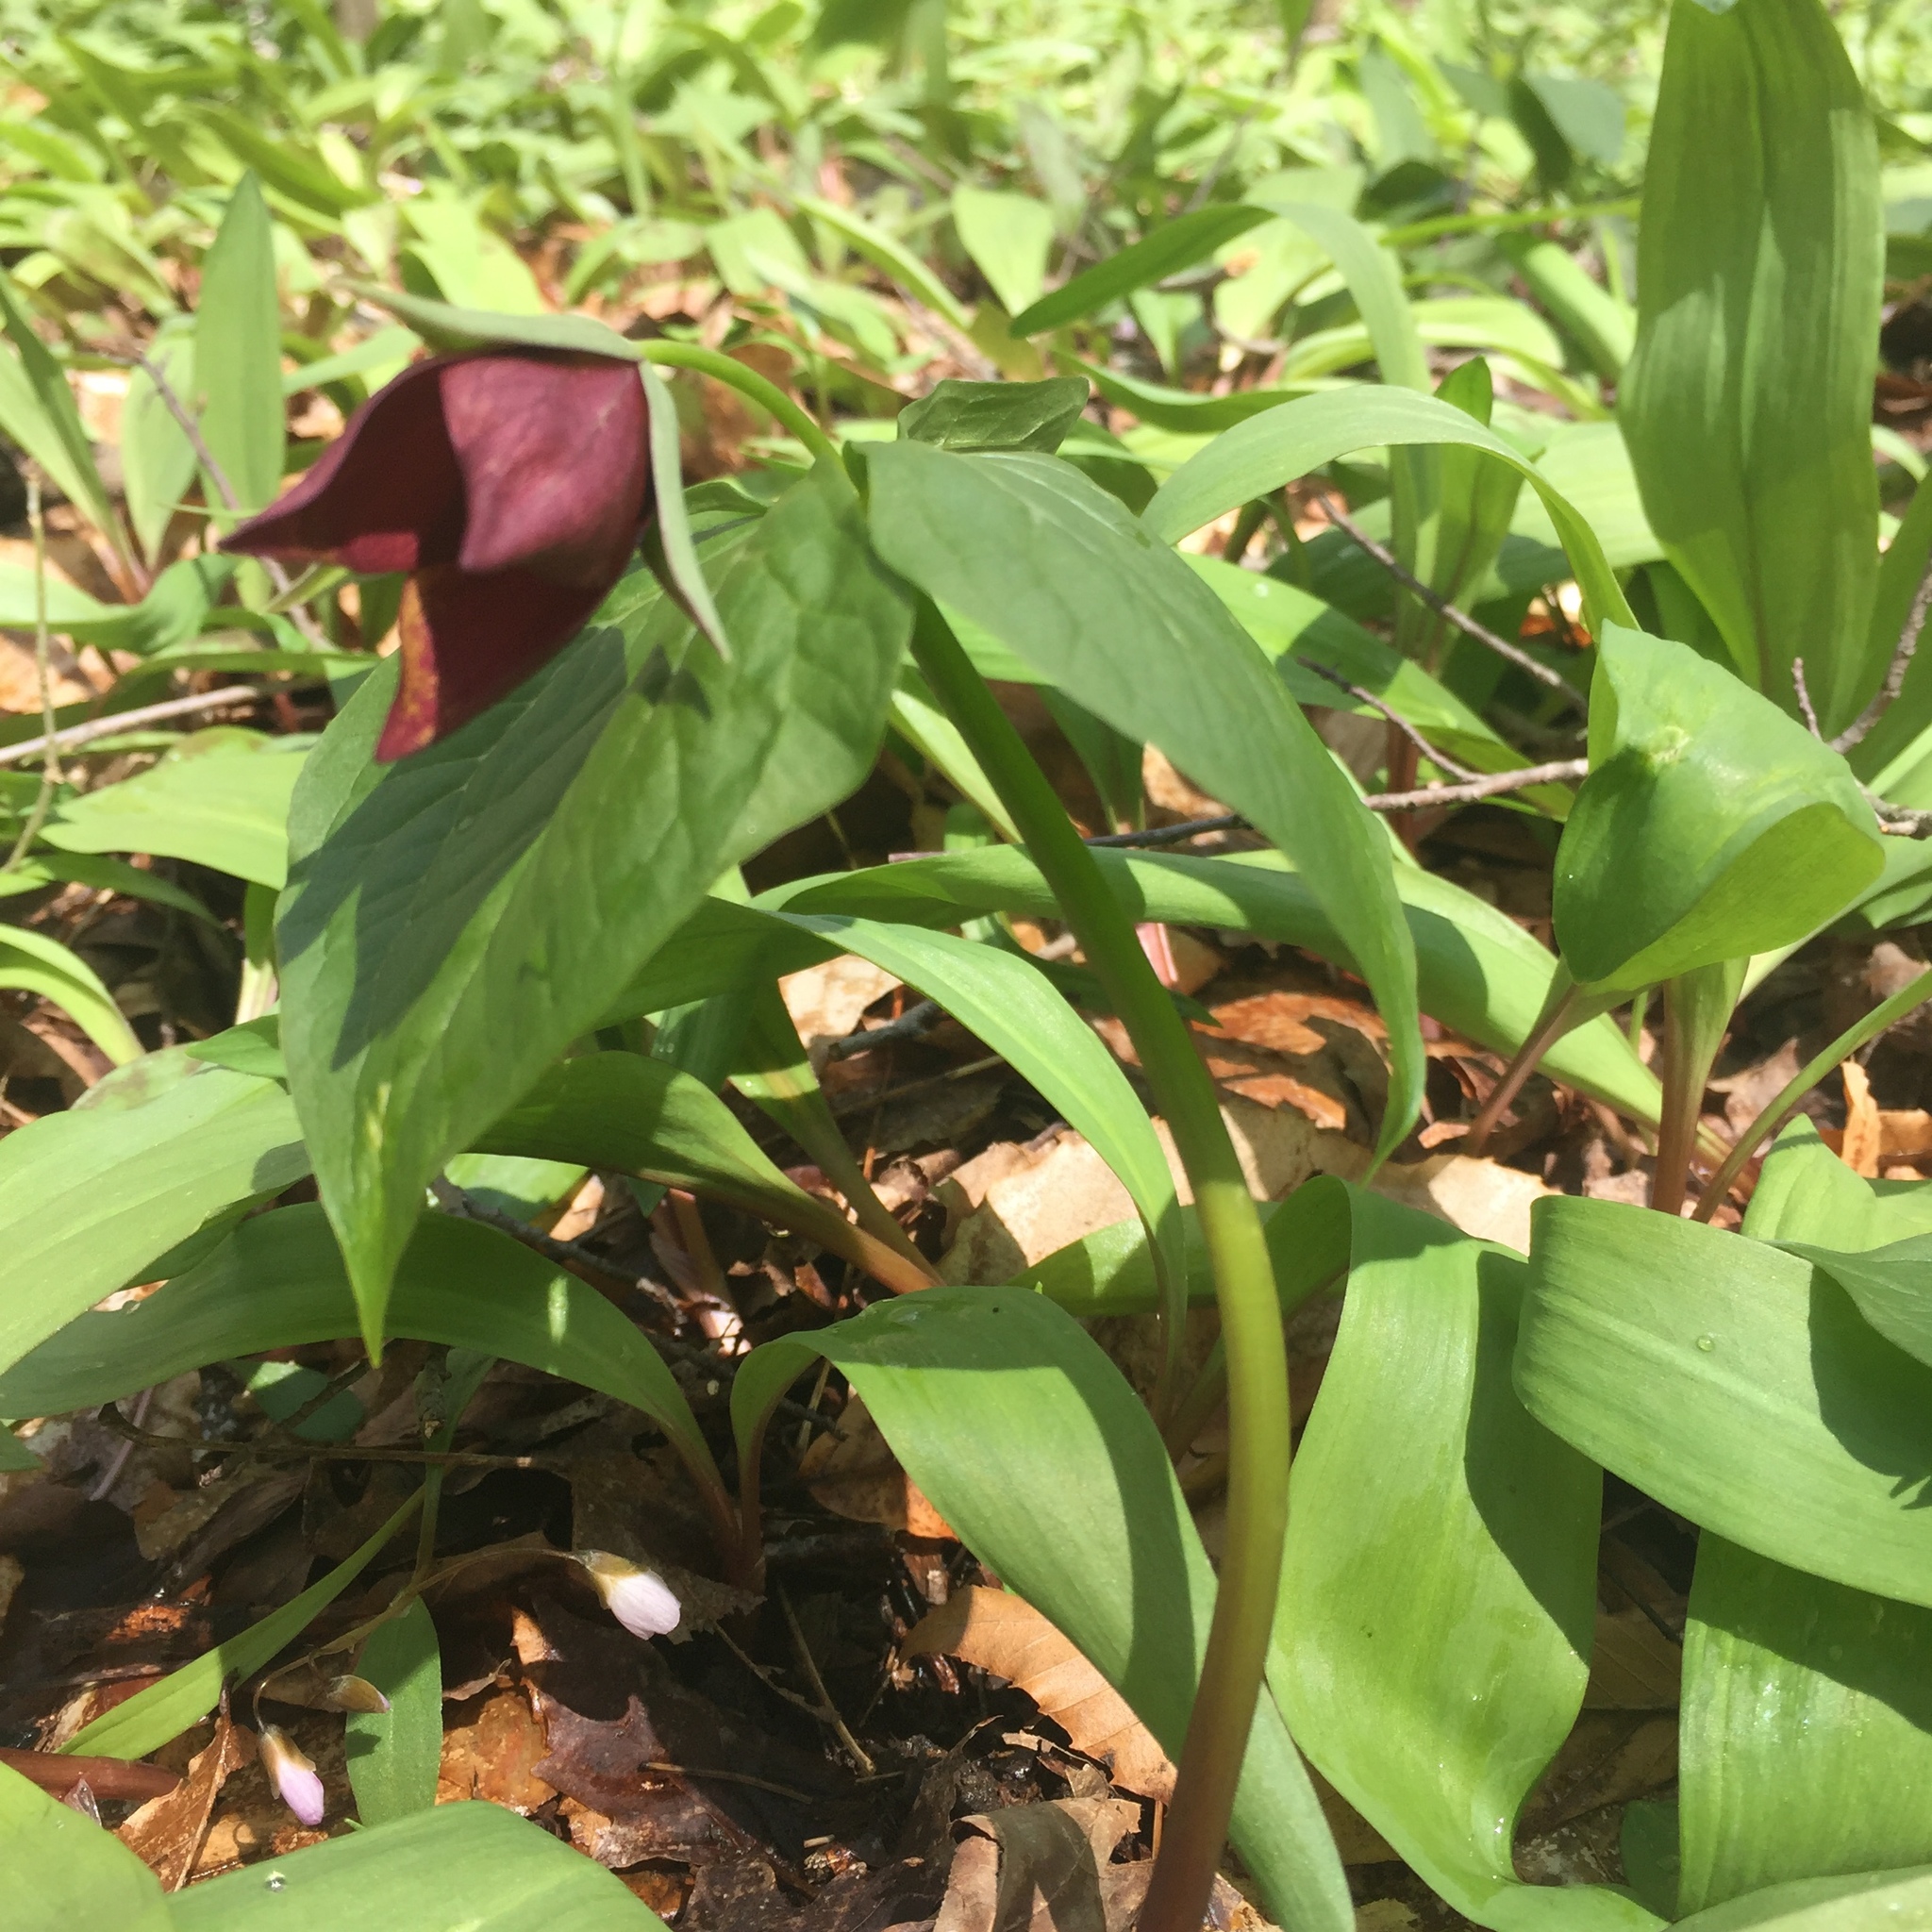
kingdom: Plantae
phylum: Tracheophyta
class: Liliopsida
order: Liliales
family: Melanthiaceae
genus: Trillium
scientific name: Trillium erectum
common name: Purple trillium
